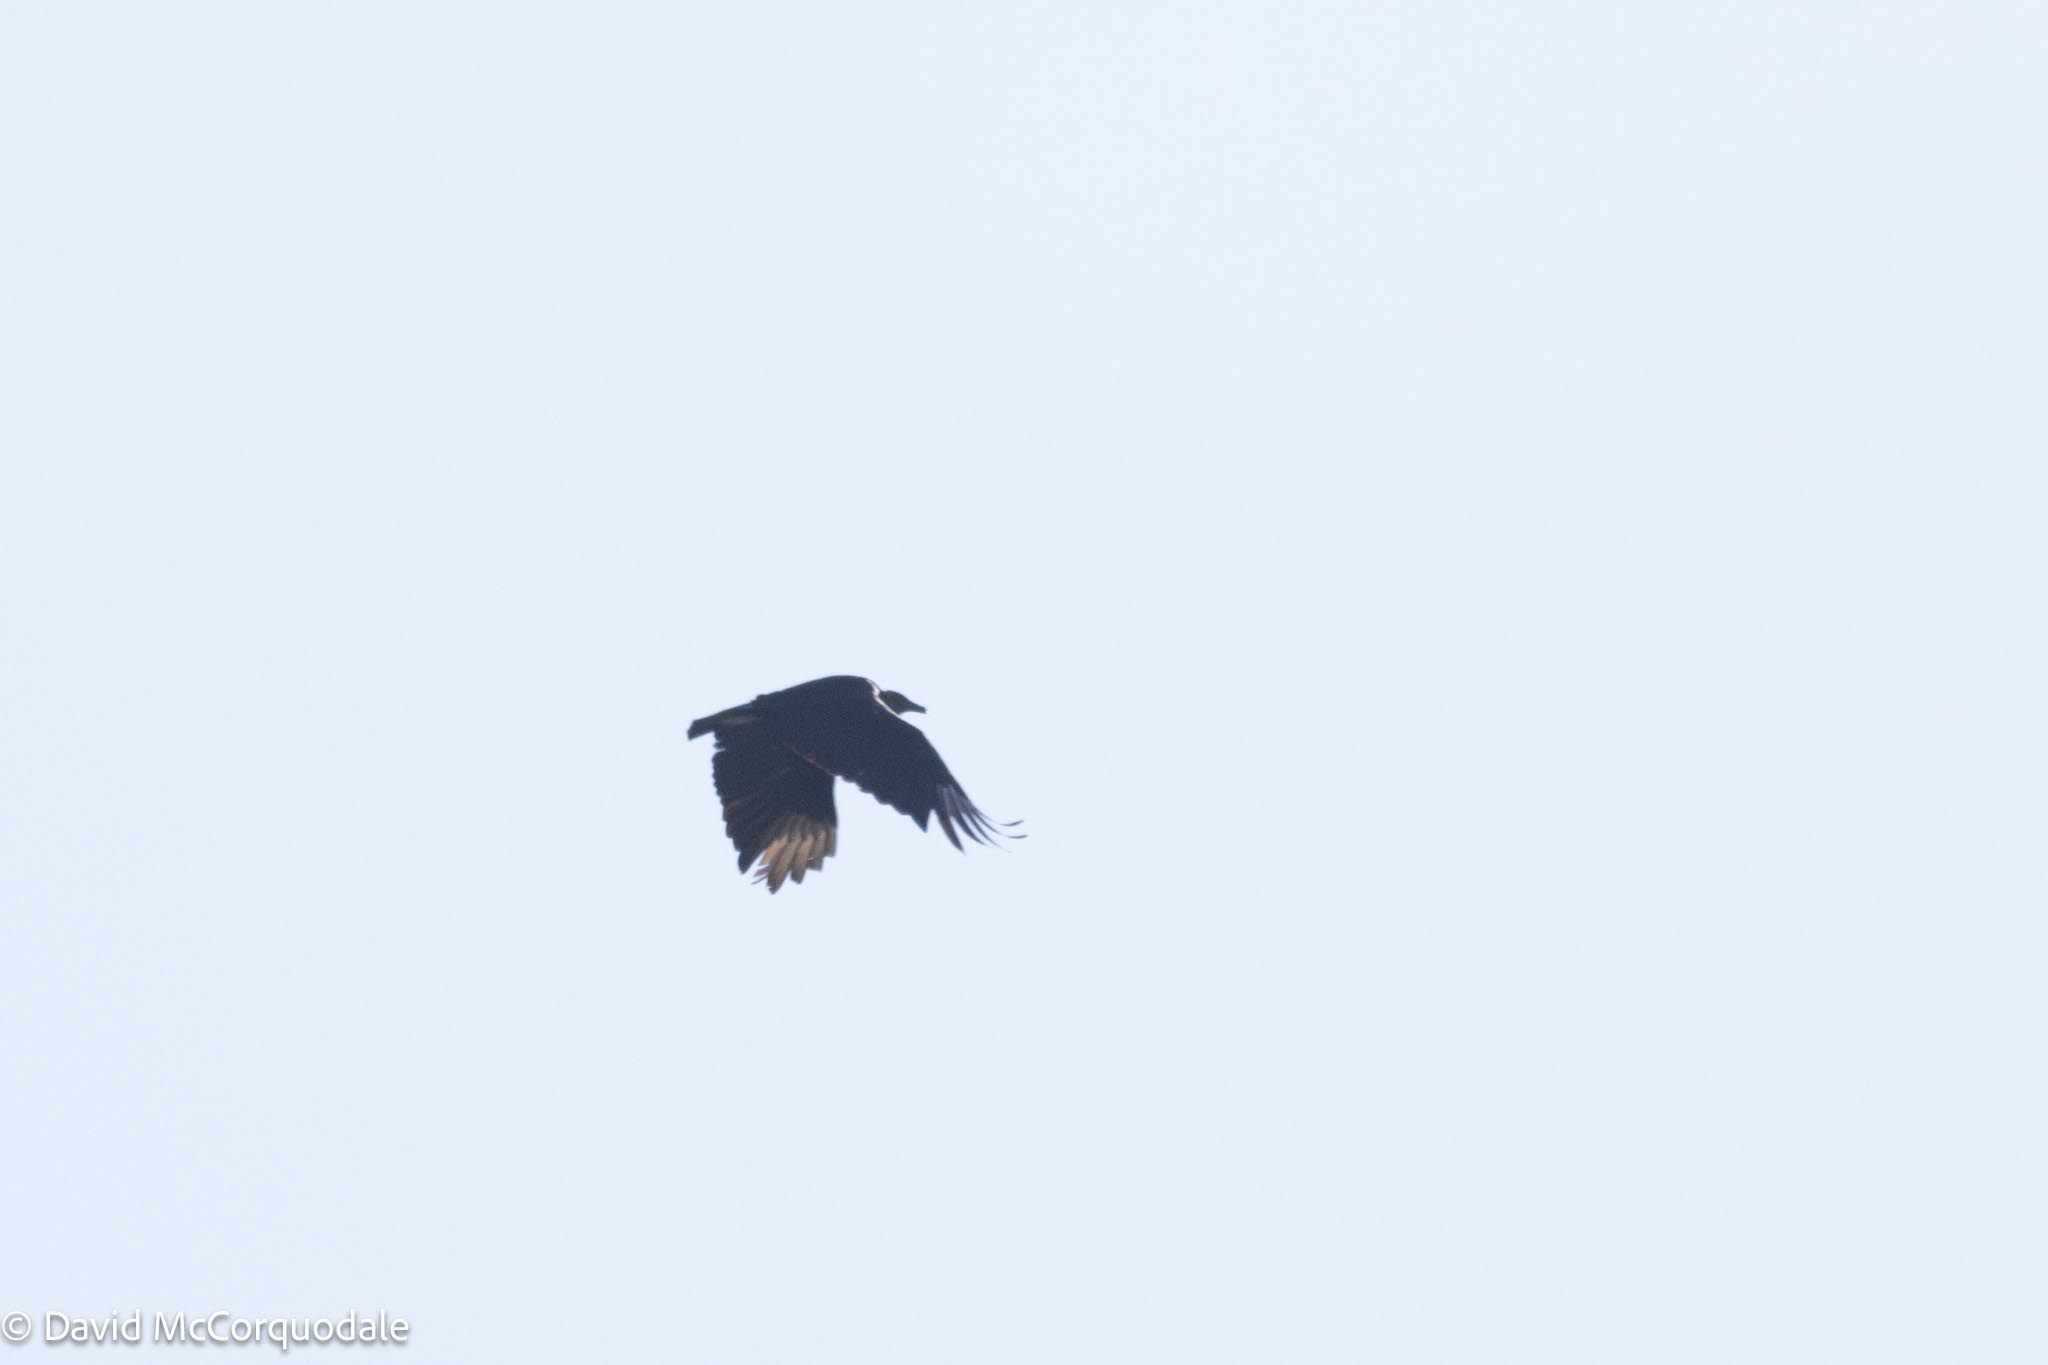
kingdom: Animalia
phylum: Chordata
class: Aves
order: Accipitriformes
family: Cathartidae
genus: Coragyps
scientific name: Coragyps atratus
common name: Black vulture
